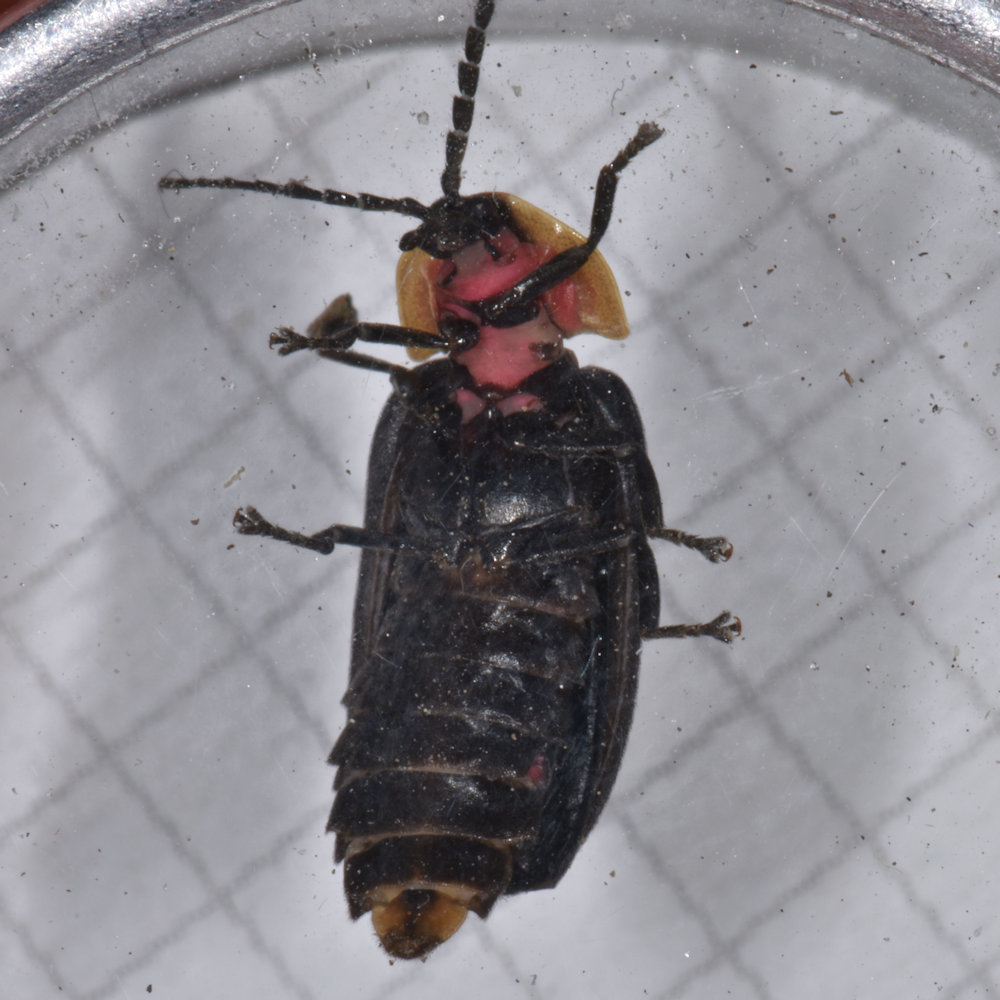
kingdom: Animalia
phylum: Arthropoda
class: Insecta
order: Coleoptera
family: Lampyridae
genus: Lucidota
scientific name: Lucidota atra
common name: Black firefly
